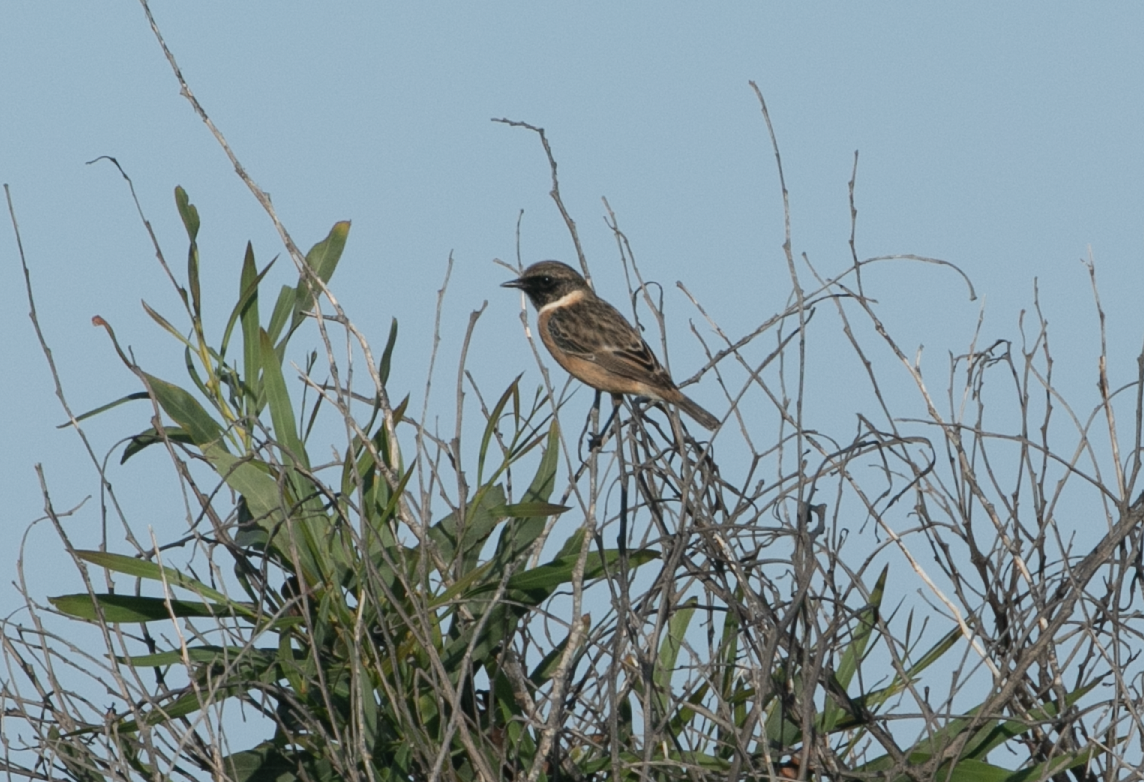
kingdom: Animalia
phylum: Chordata
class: Aves
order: Passeriformes
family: Muscicapidae
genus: Saxicola
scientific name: Saxicola rubicola
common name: European stonechat
